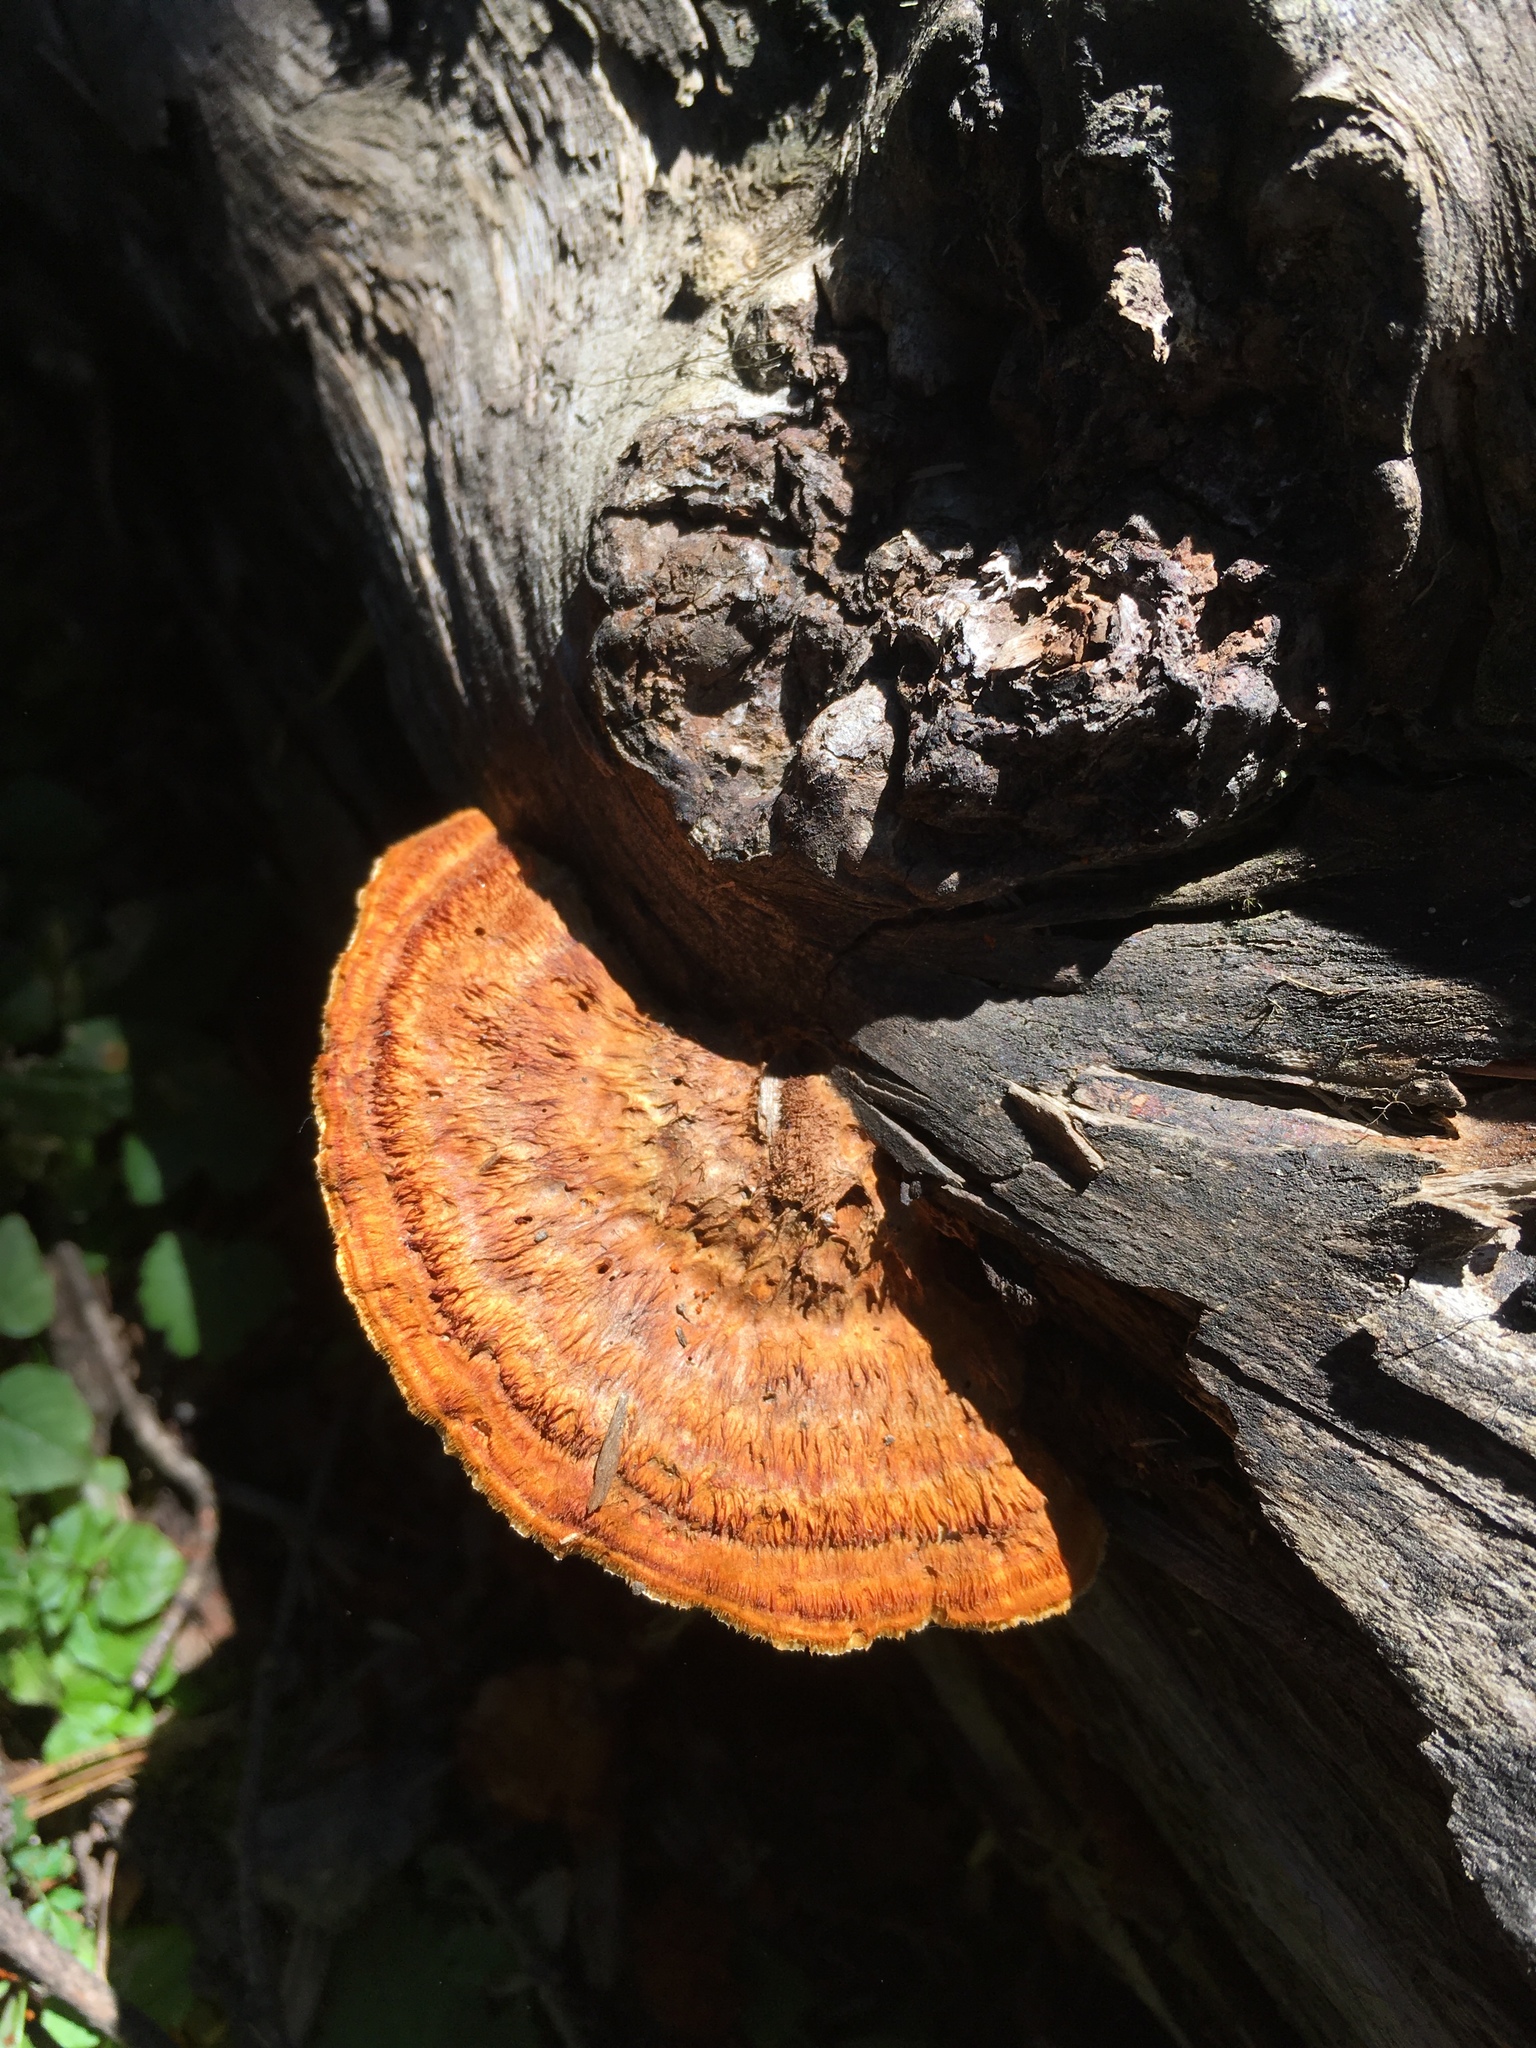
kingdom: Fungi
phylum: Basidiomycota
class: Agaricomycetes
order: Polyporales
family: Pycnoporellaceae
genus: Pycnoporellus
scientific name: Pycnoporellus fulgens
